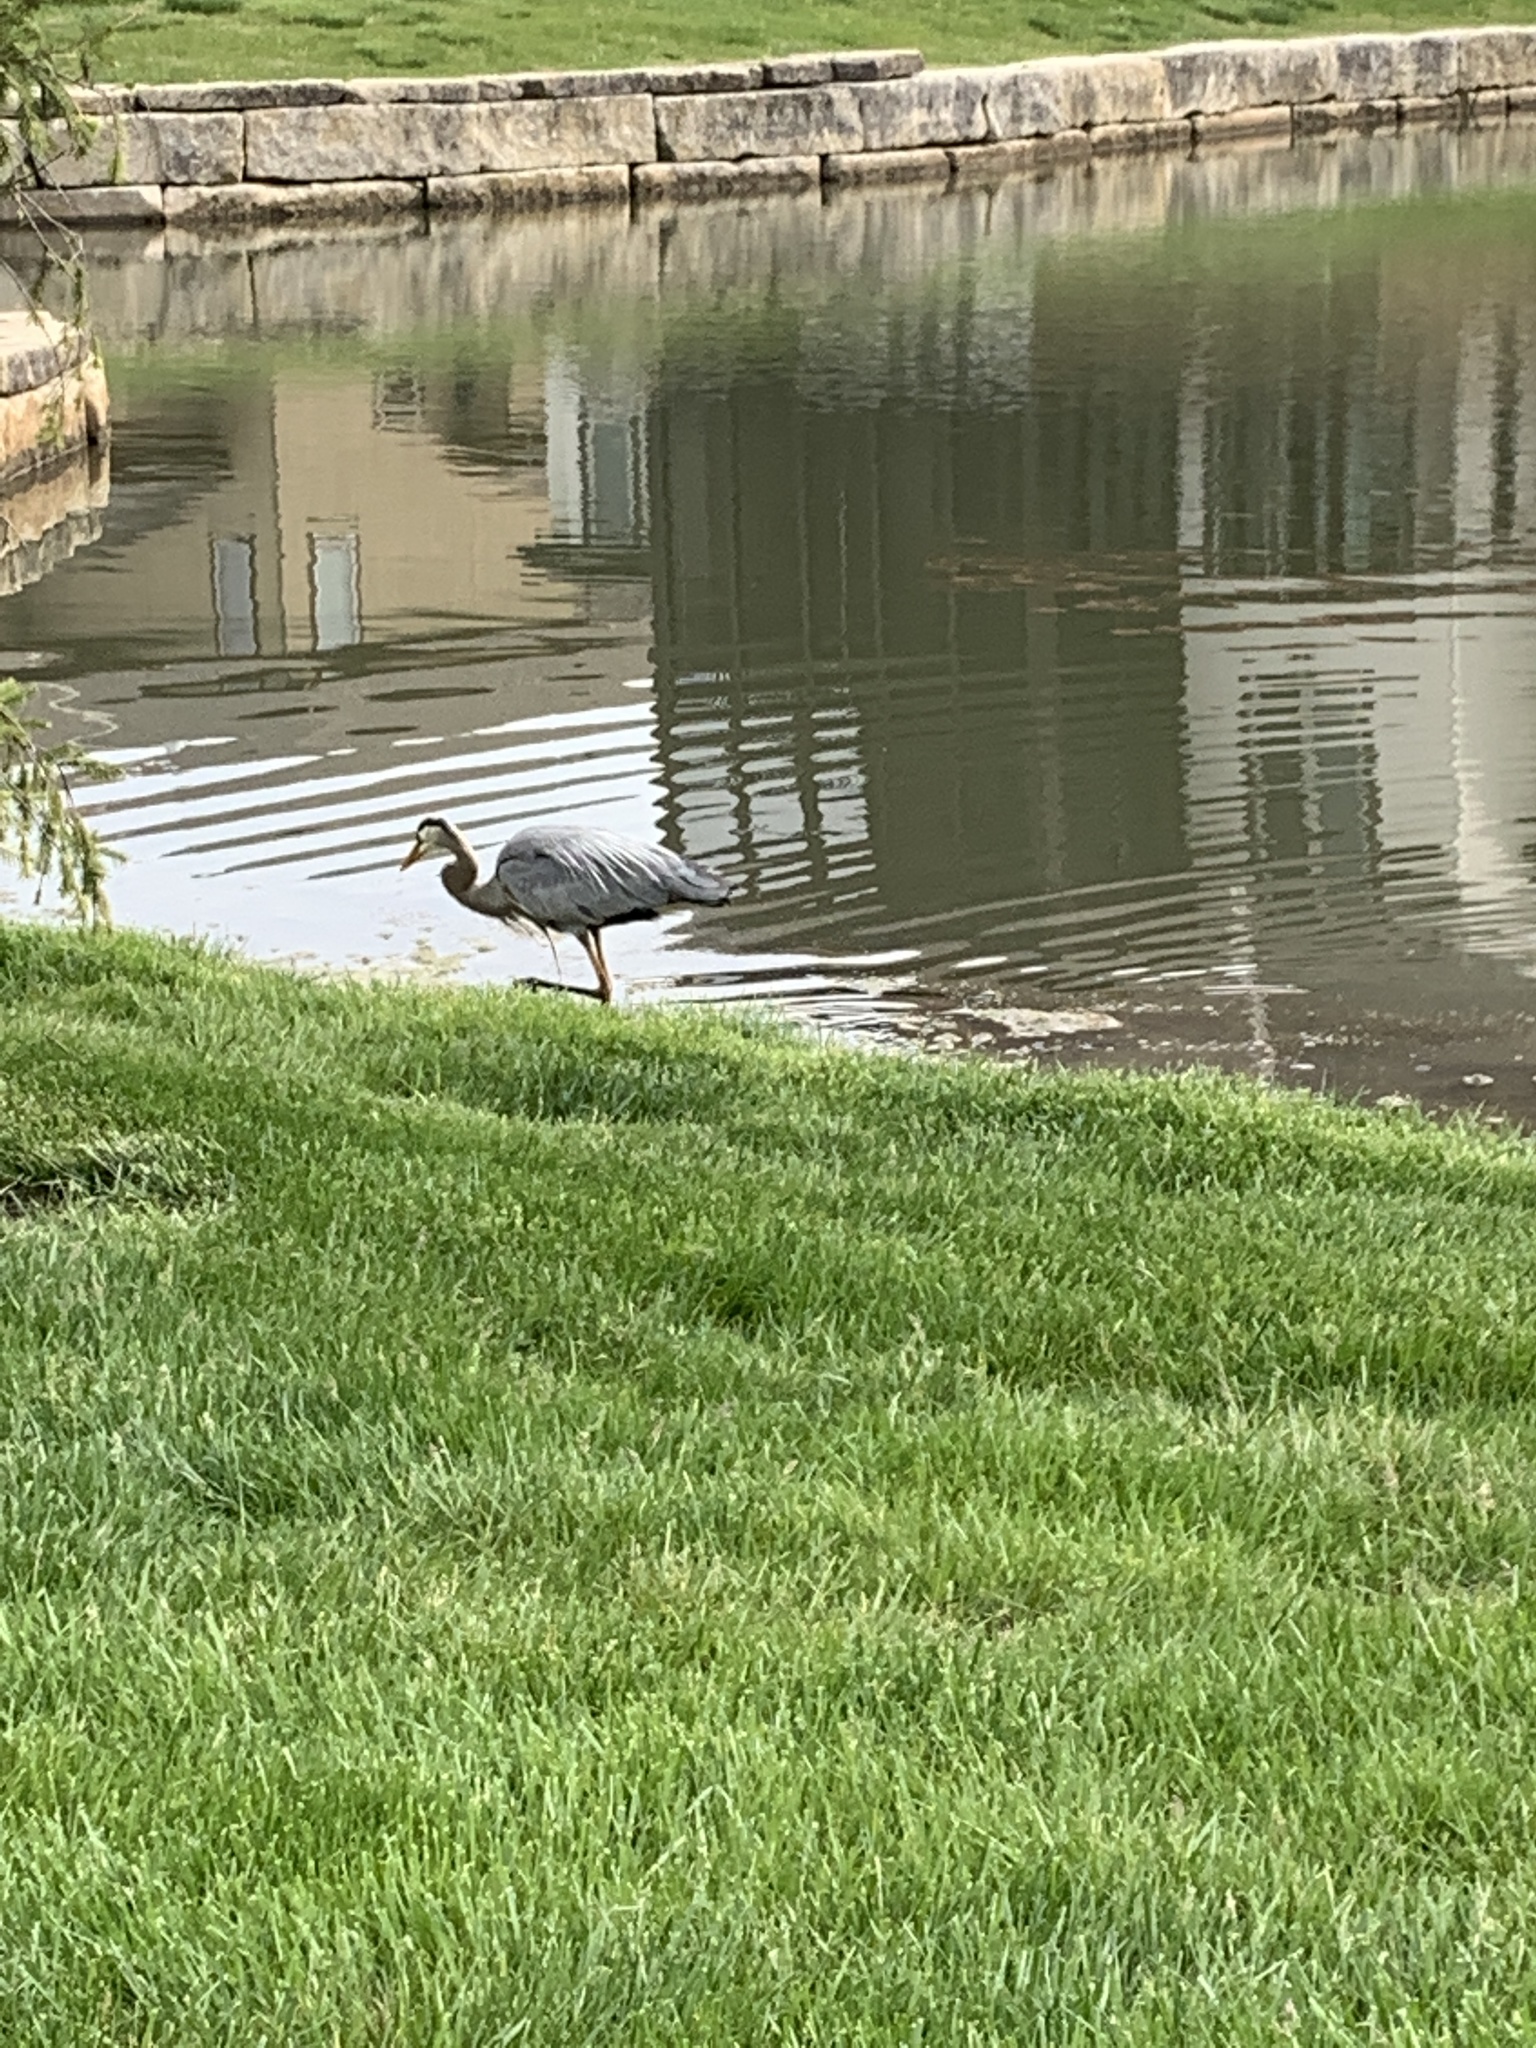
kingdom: Animalia
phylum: Chordata
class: Aves
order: Pelecaniformes
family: Ardeidae
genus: Ardea
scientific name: Ardea herodias
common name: Great blue heron
